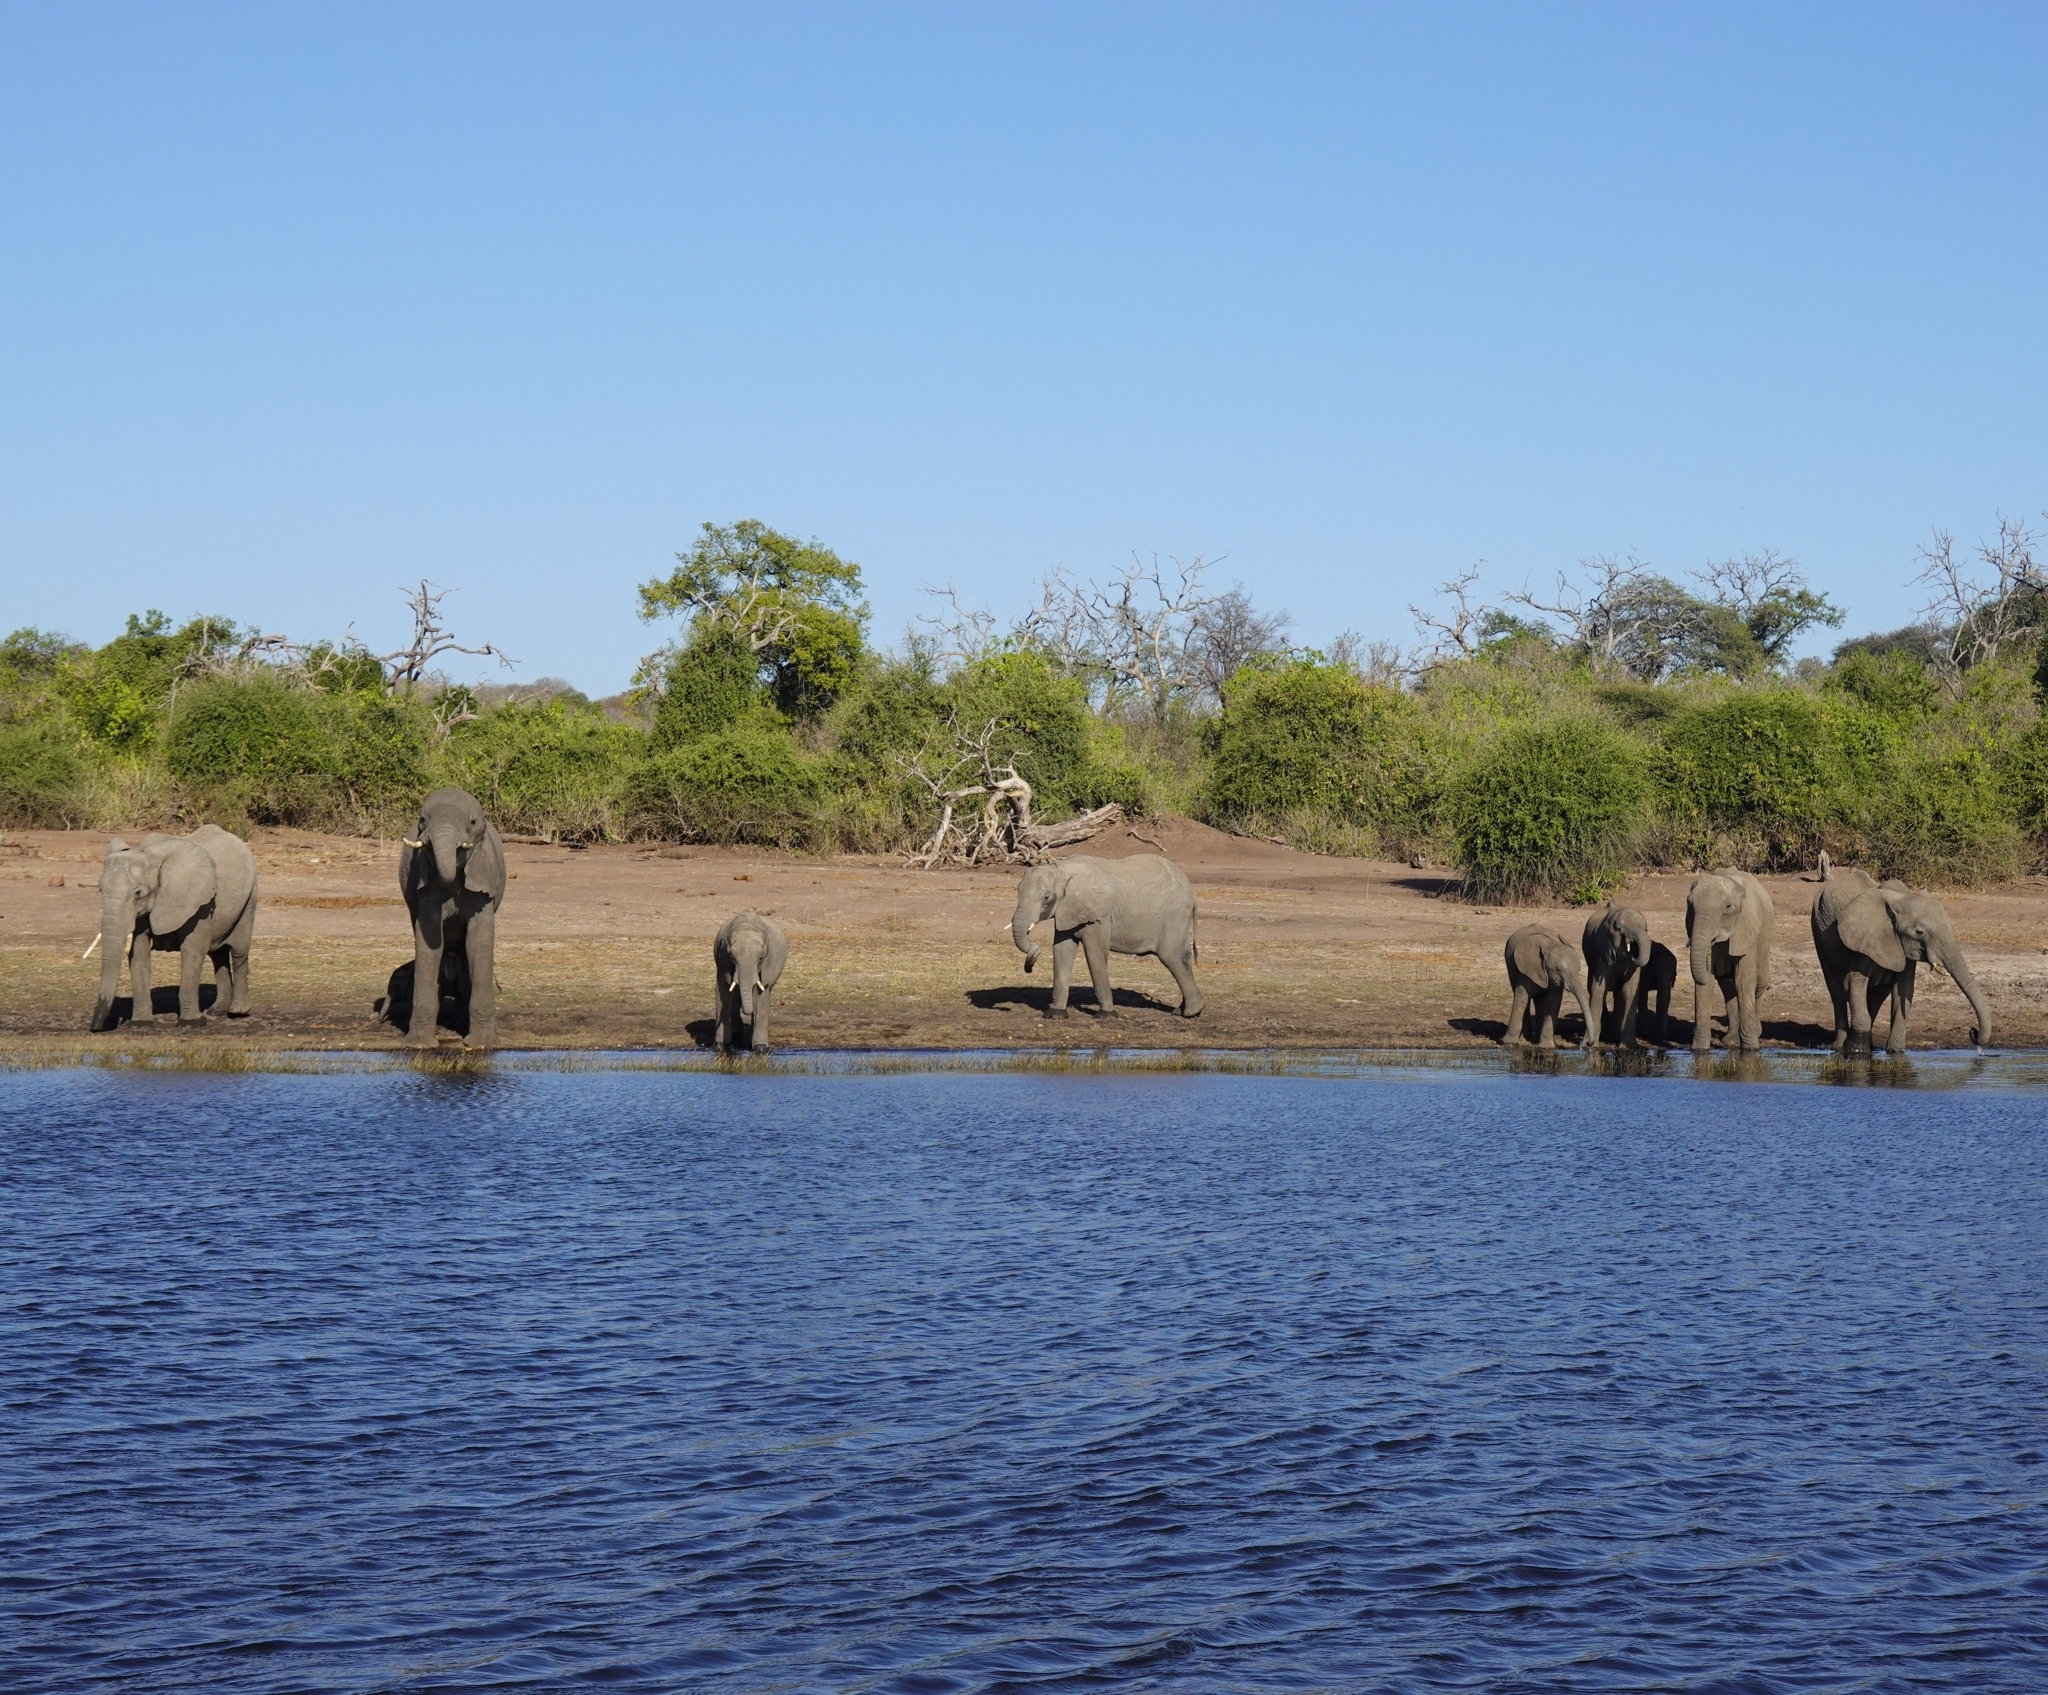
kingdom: Animalia
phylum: Chordata
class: Mammalia
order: Proboscidea
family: Elephantidae
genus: Loxodonta
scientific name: Loxodonta africana
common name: African elephant
